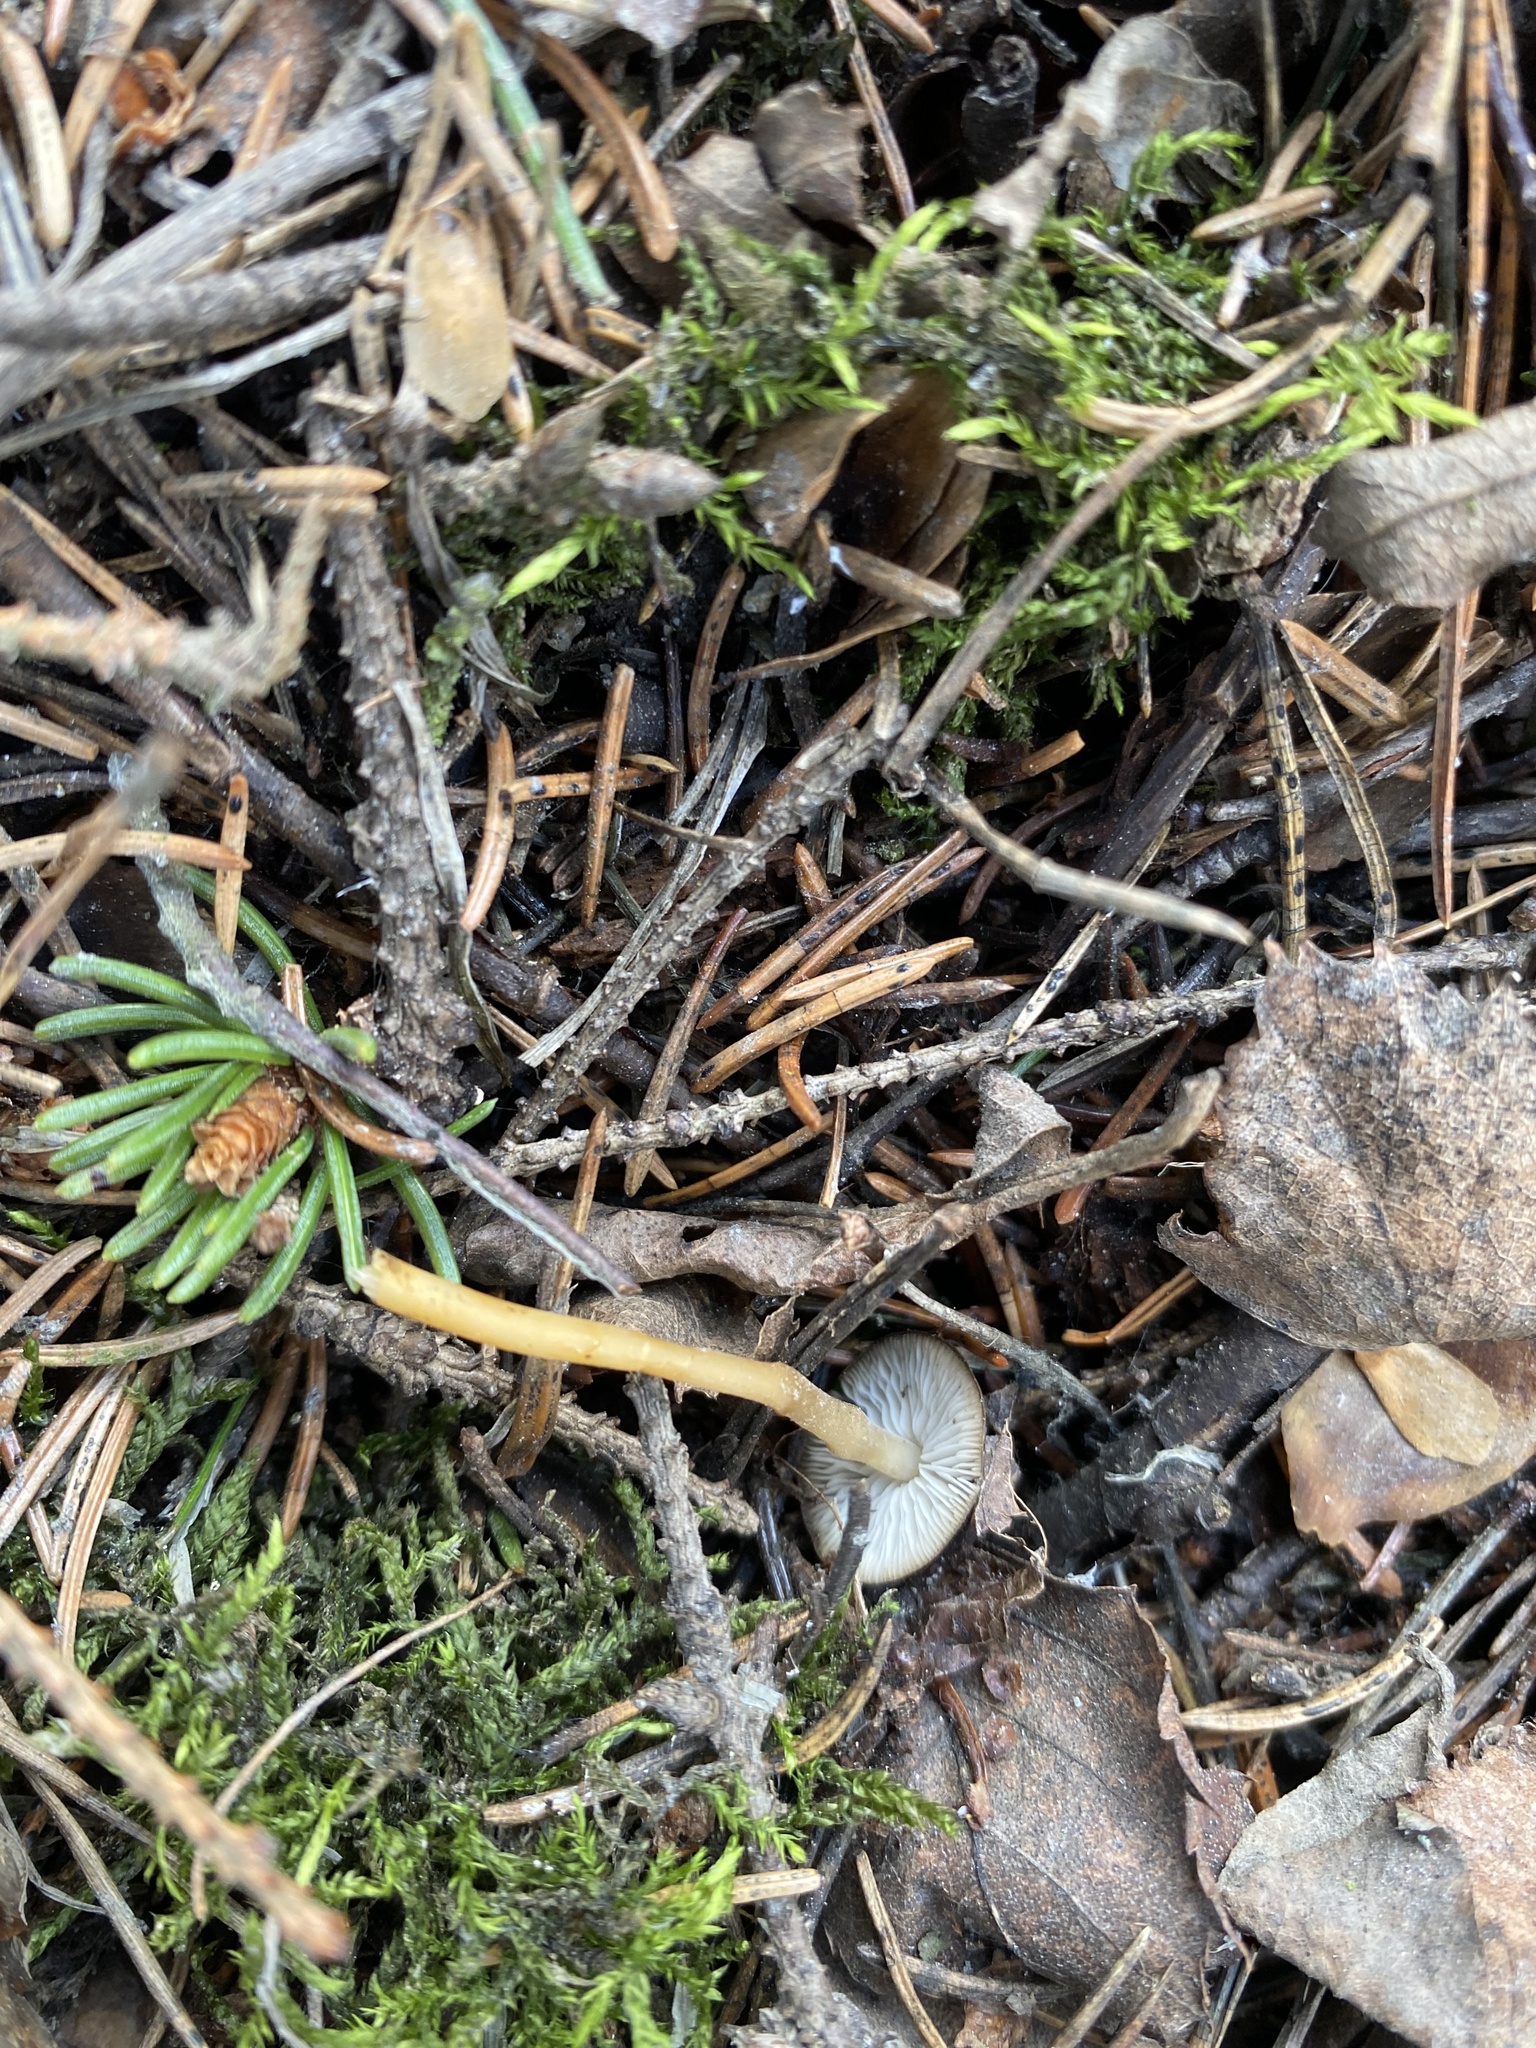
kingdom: Fungi
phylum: Basidiomycota
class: Agaricomycetes
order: Agaricales
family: Physalacriaceae
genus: Strobilurus
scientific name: Strobilurus esculentus
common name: Sprucecone cap
